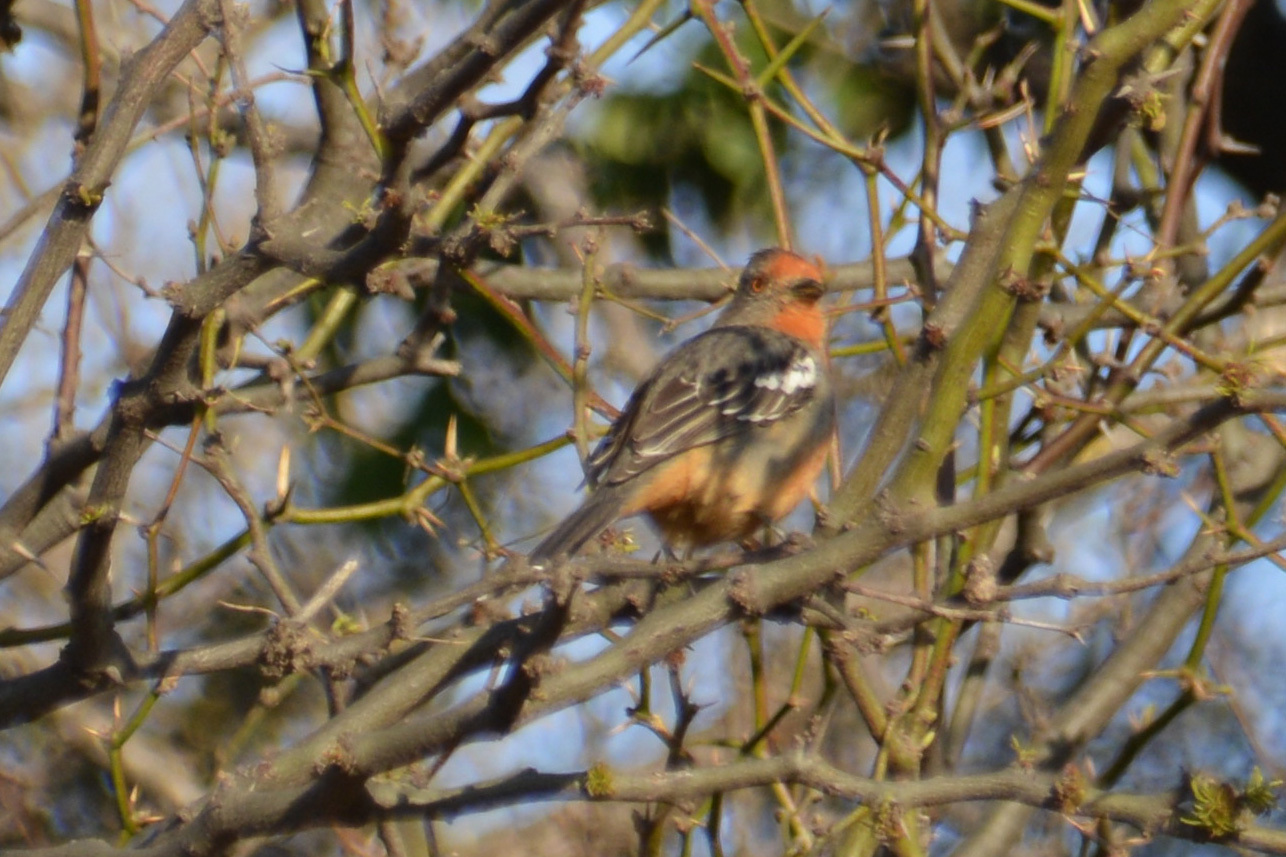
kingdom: Animalia
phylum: Chordata
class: Aves
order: Passeriformes
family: Cotingidae
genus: Phytotoma
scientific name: Phytotoma rutila
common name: White-tipped plantcutter
